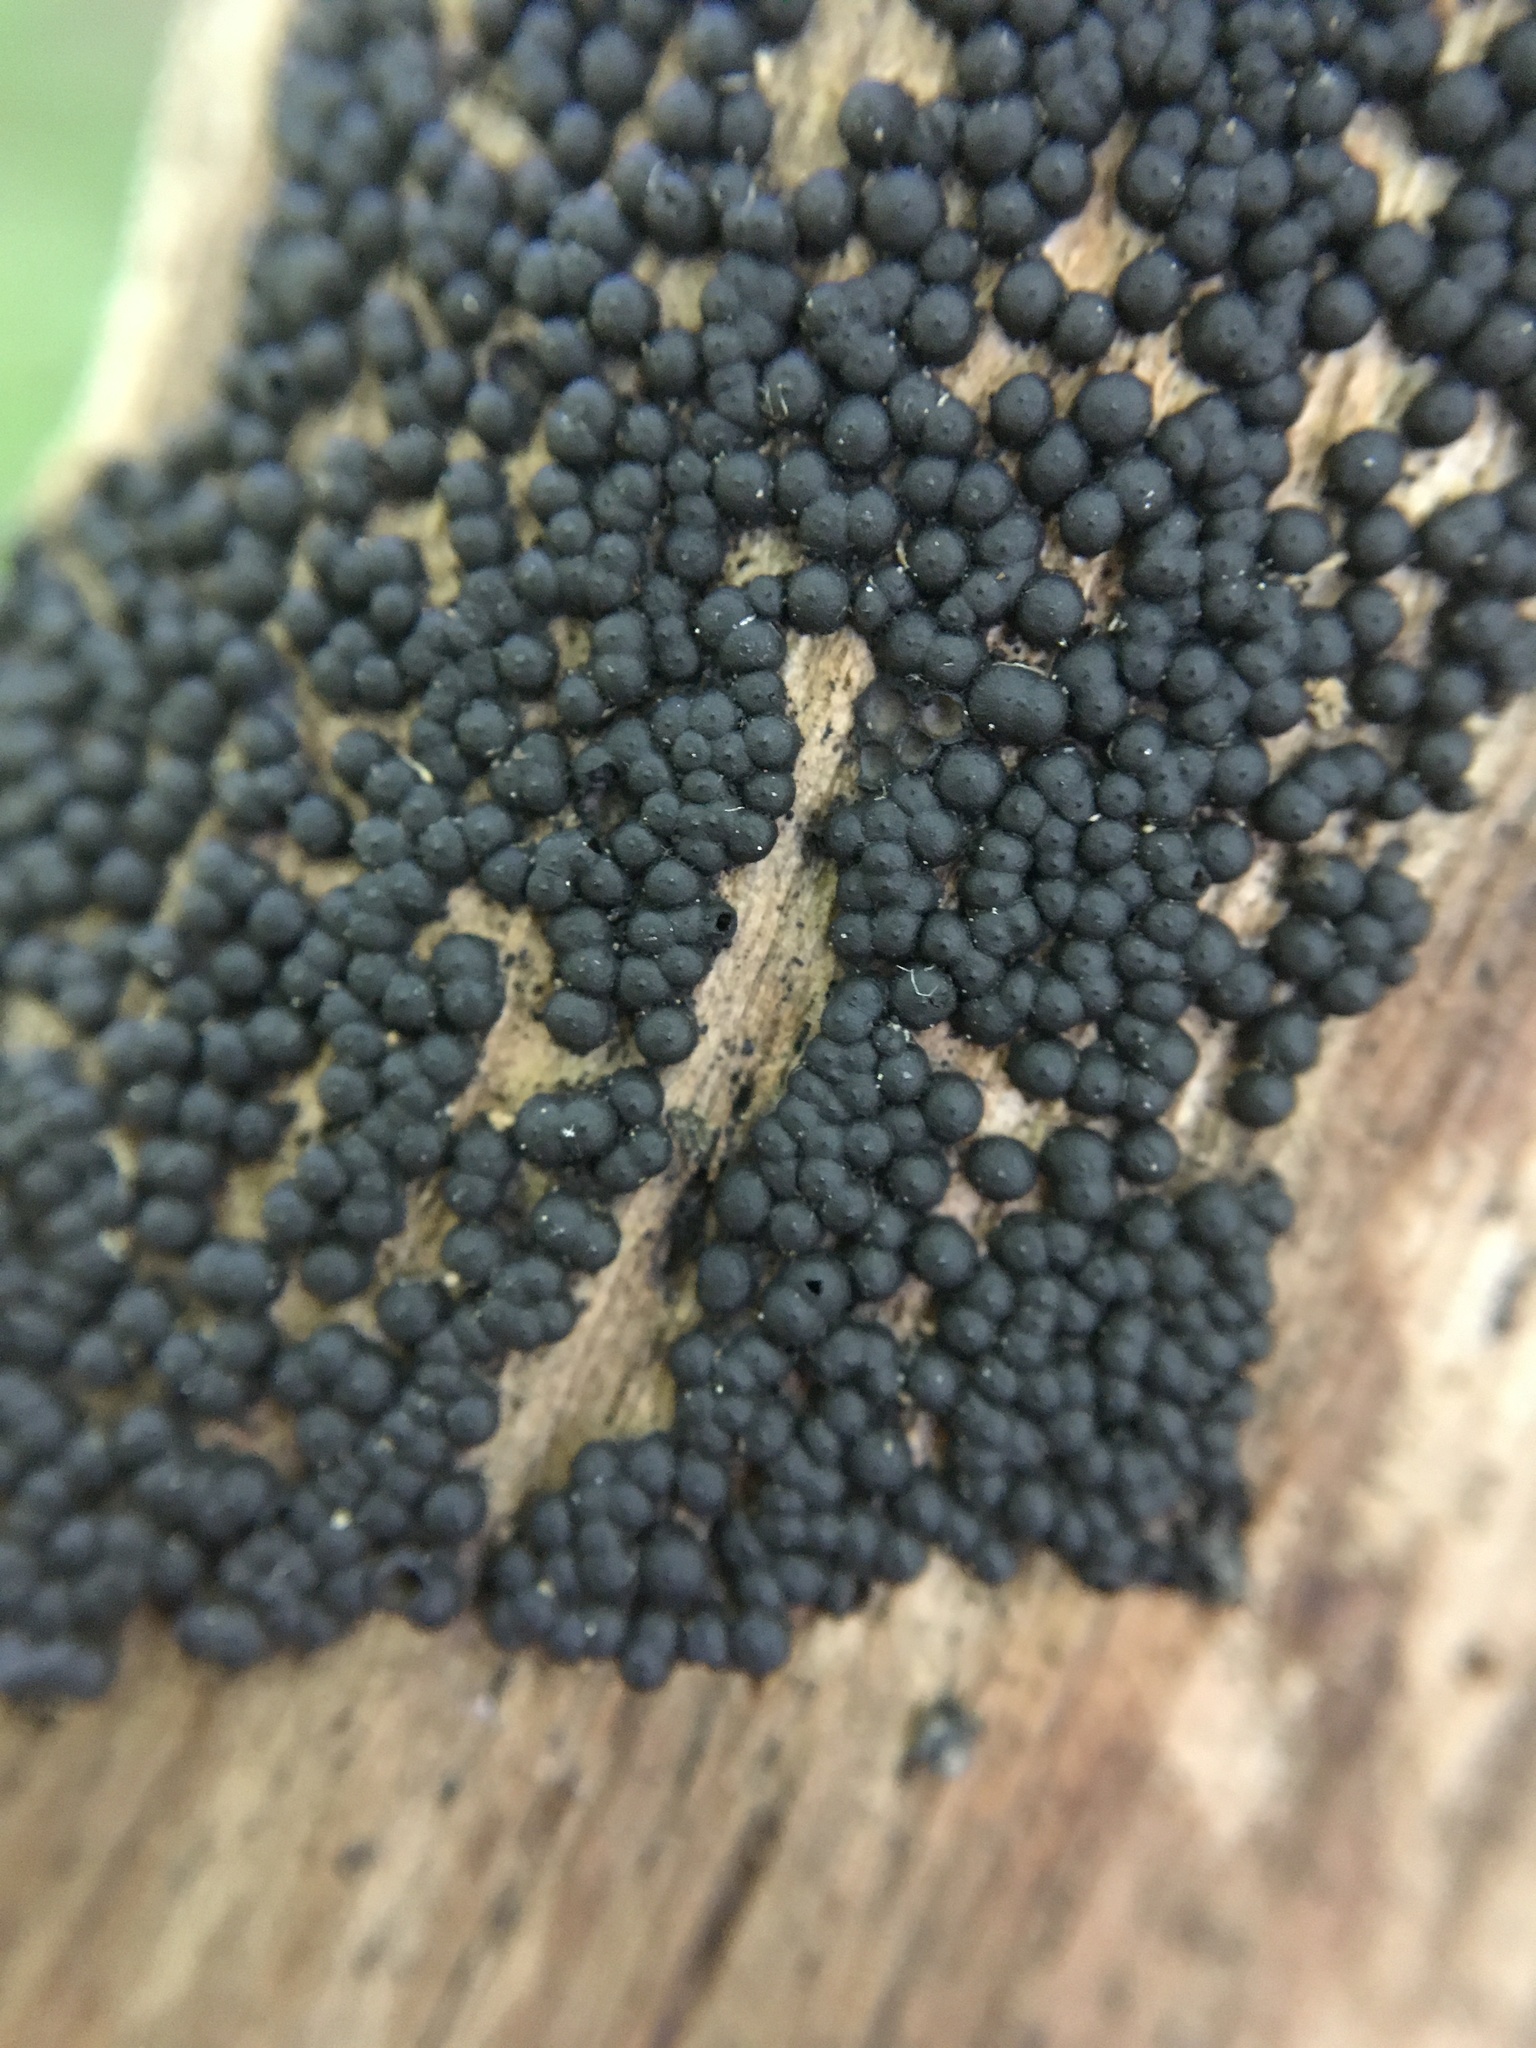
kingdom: Fungi
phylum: Ascomycota
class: Sordariomycetes
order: Xylariales
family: Xylariaceae
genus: Rosellinia
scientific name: Rosellinia corticium
